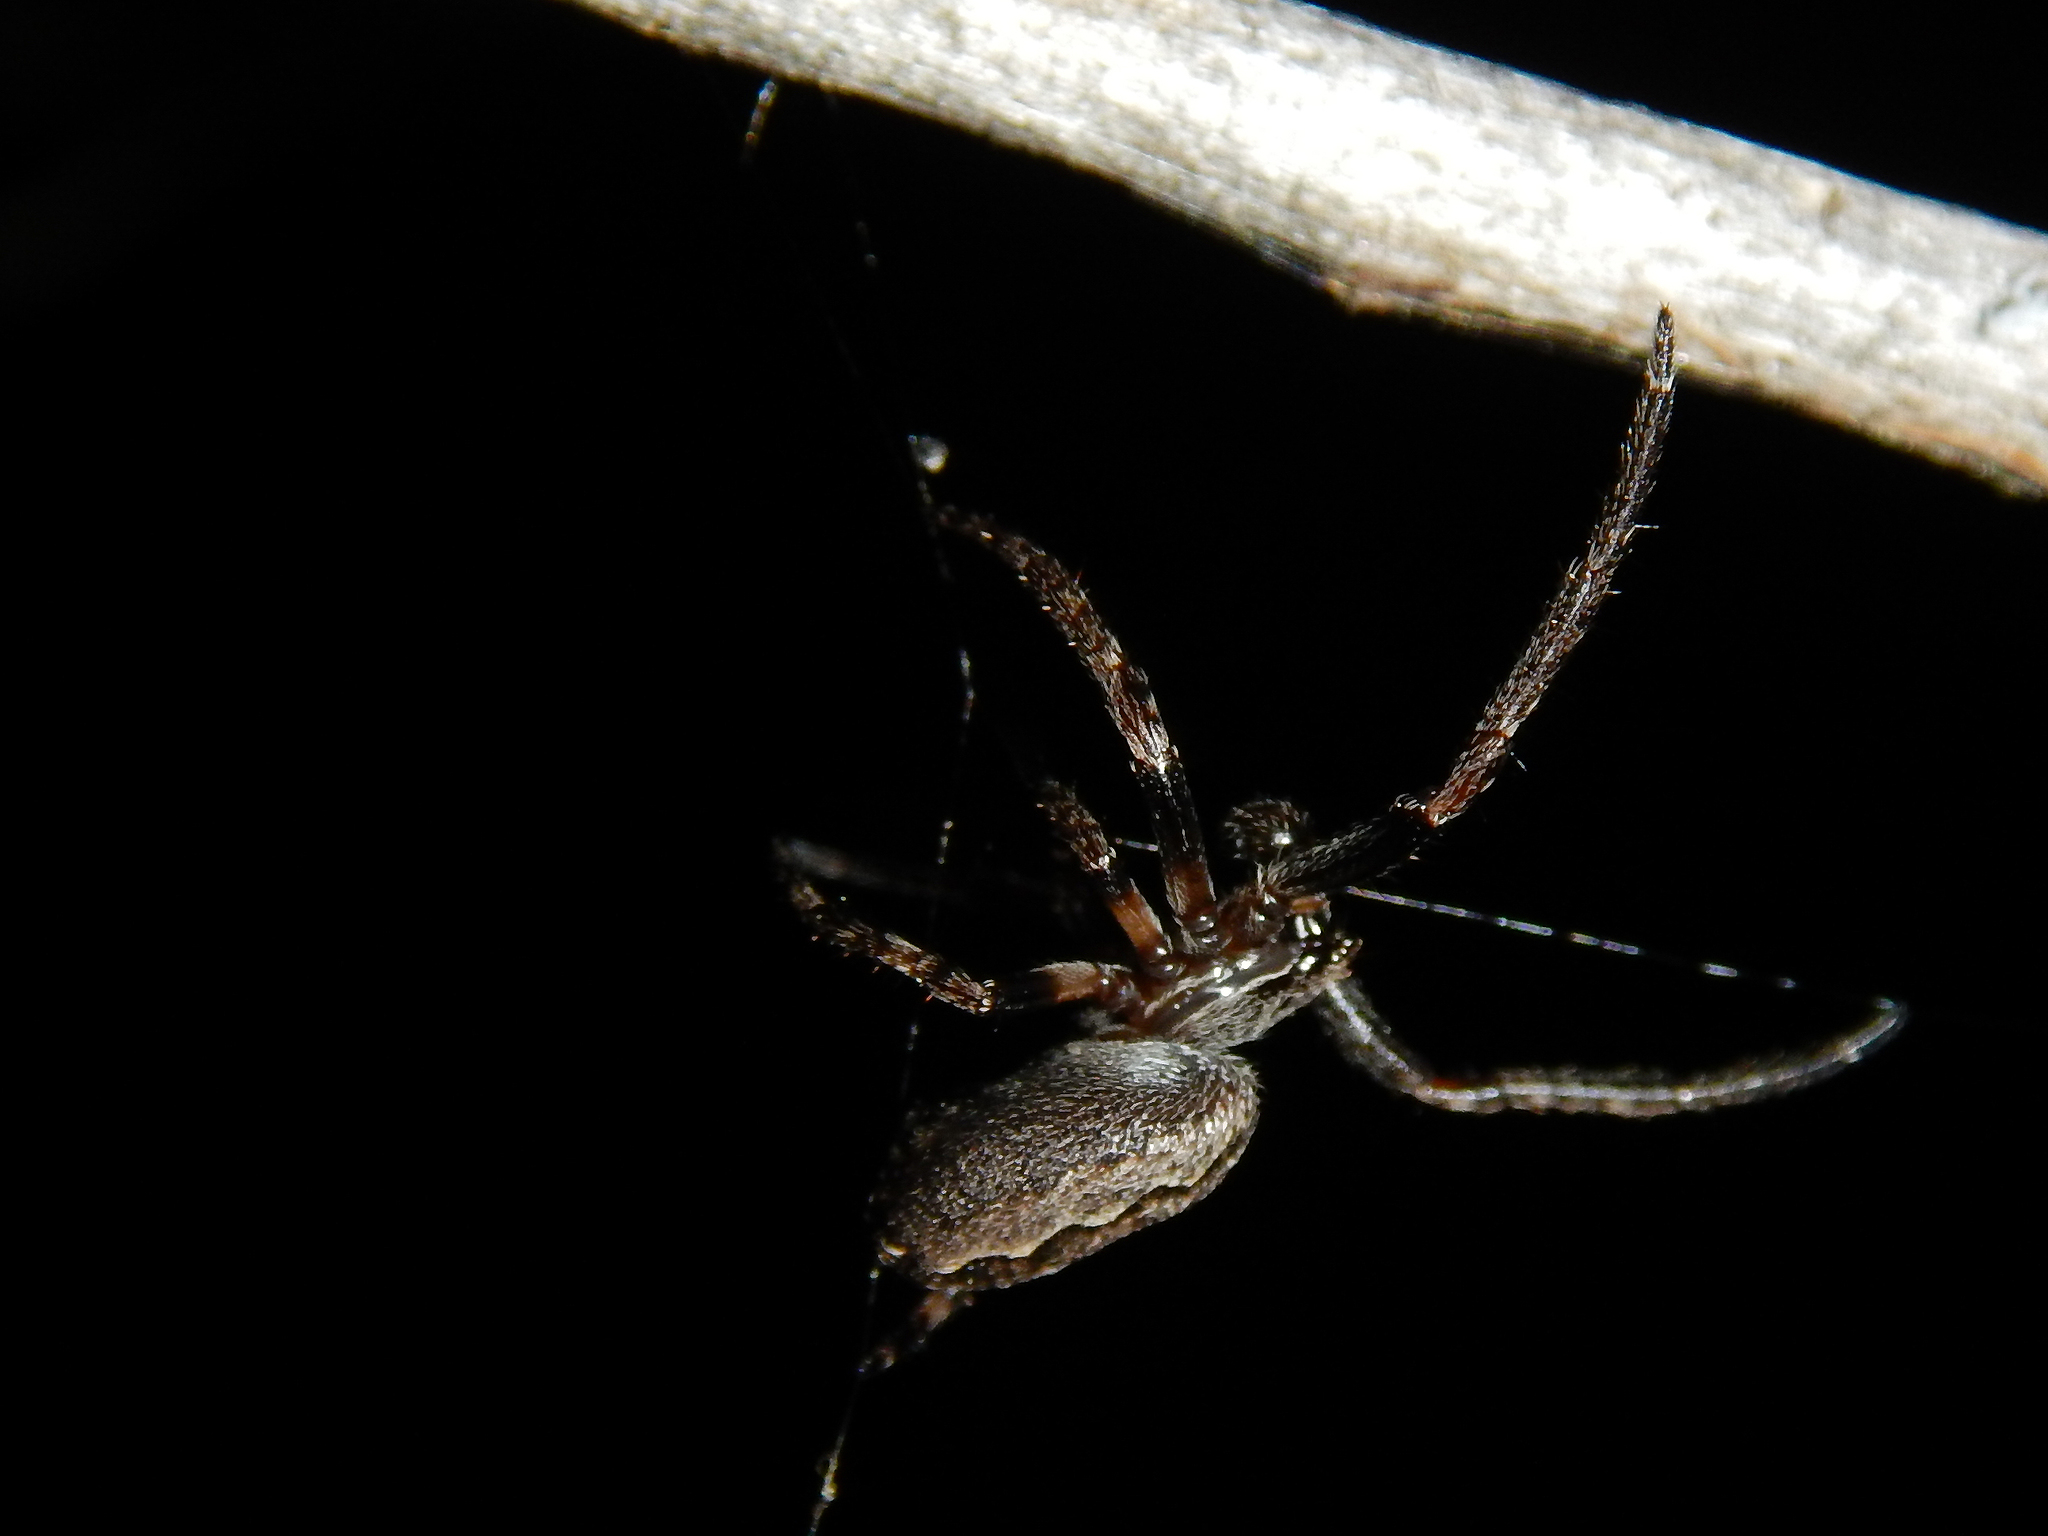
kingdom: Animalia
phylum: Arthropoda
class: Arachnida
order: Araneae
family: Araneidae
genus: Nuctenea
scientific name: Nuctenea umbratica
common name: Toad spider
